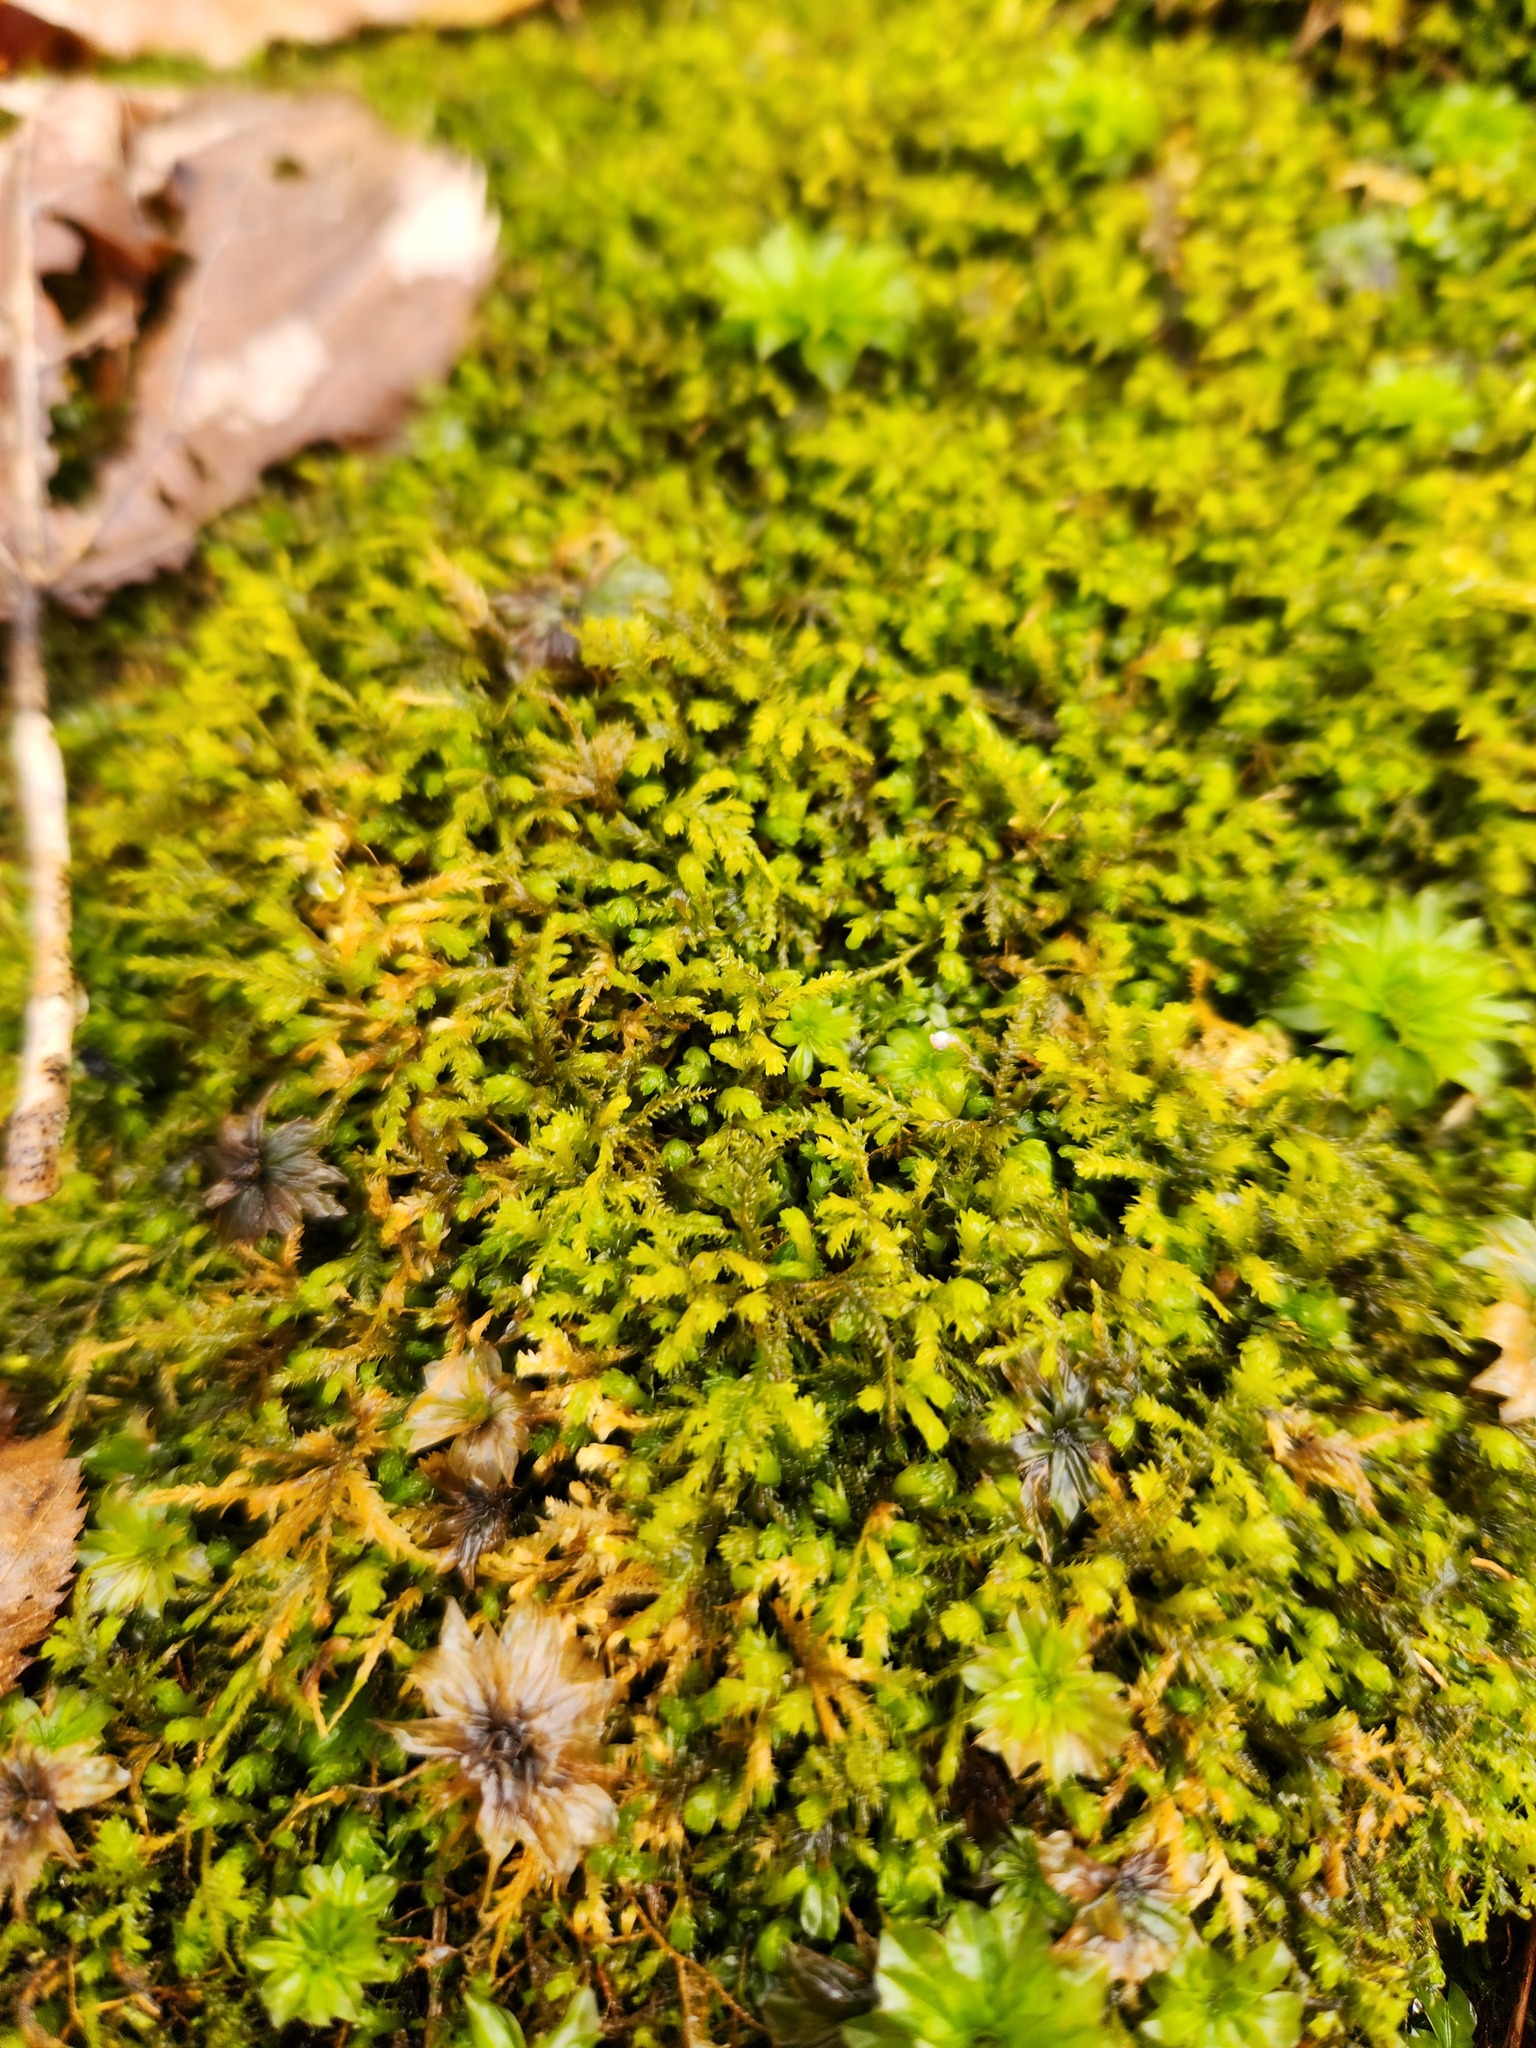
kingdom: Plantae
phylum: Bryophyta
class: Bryopsida
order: Hypnales
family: Neckeraceae
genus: Pseudanomodon
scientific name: Pseudanomodon attenuatus
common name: Tree-skirt moss
